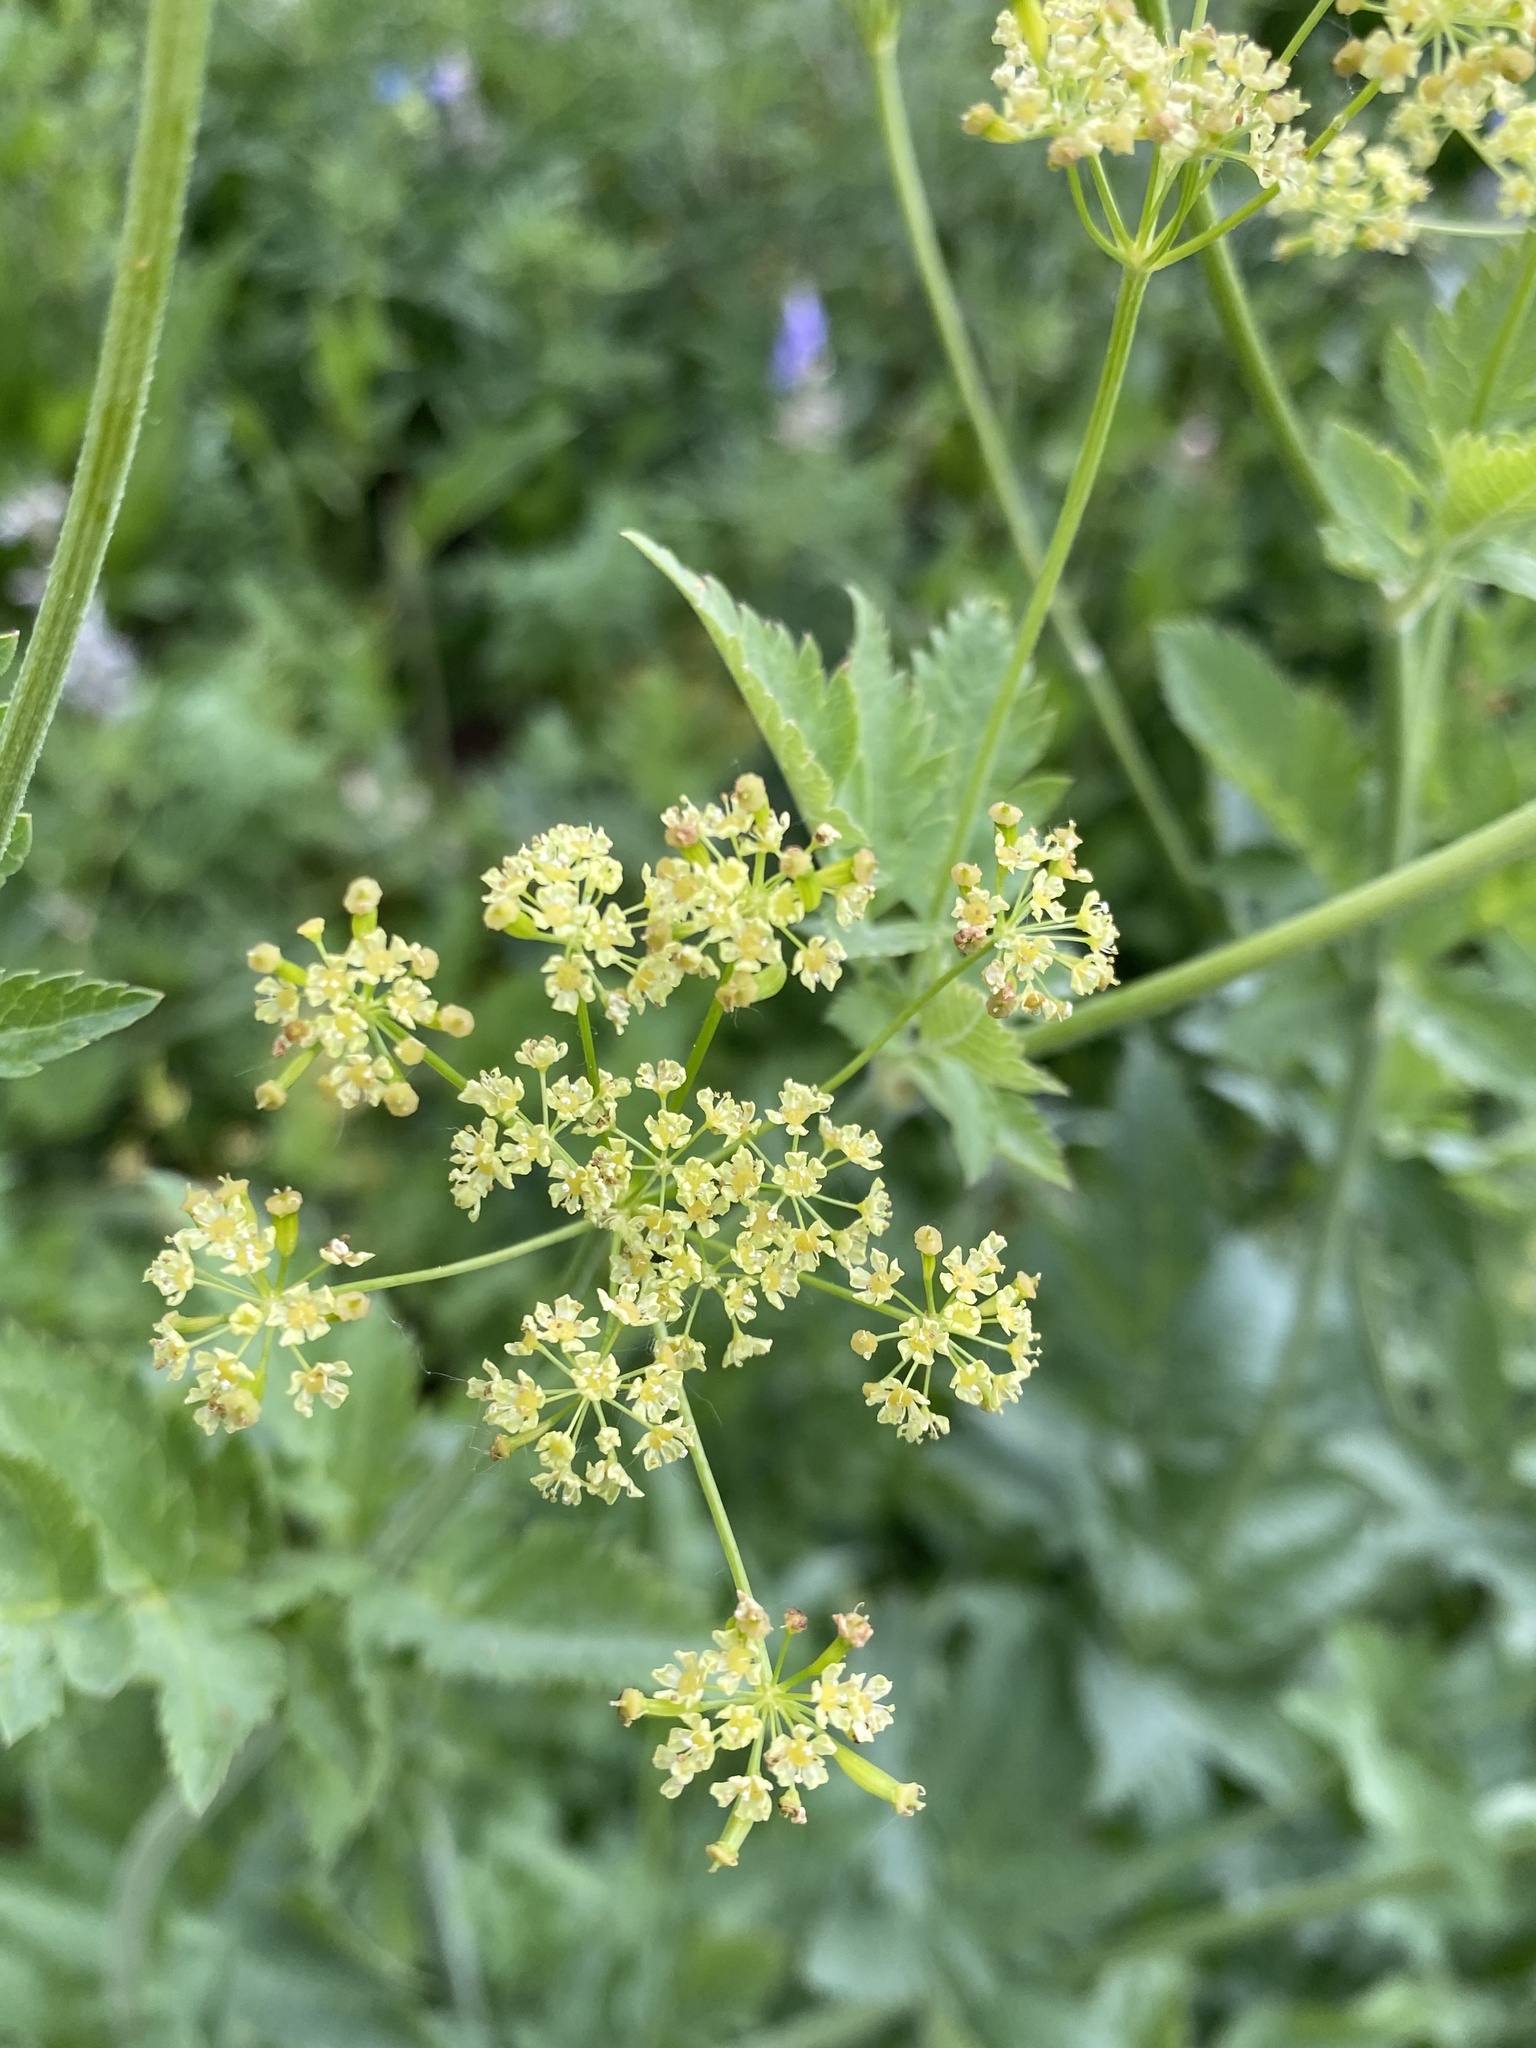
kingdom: Plantae
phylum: Tracheophyta
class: Magnoliopsida
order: Apiales
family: Apiaceae
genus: Osmorhiza
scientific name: Osmorhiza occidentalis
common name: Western sweet cicely
